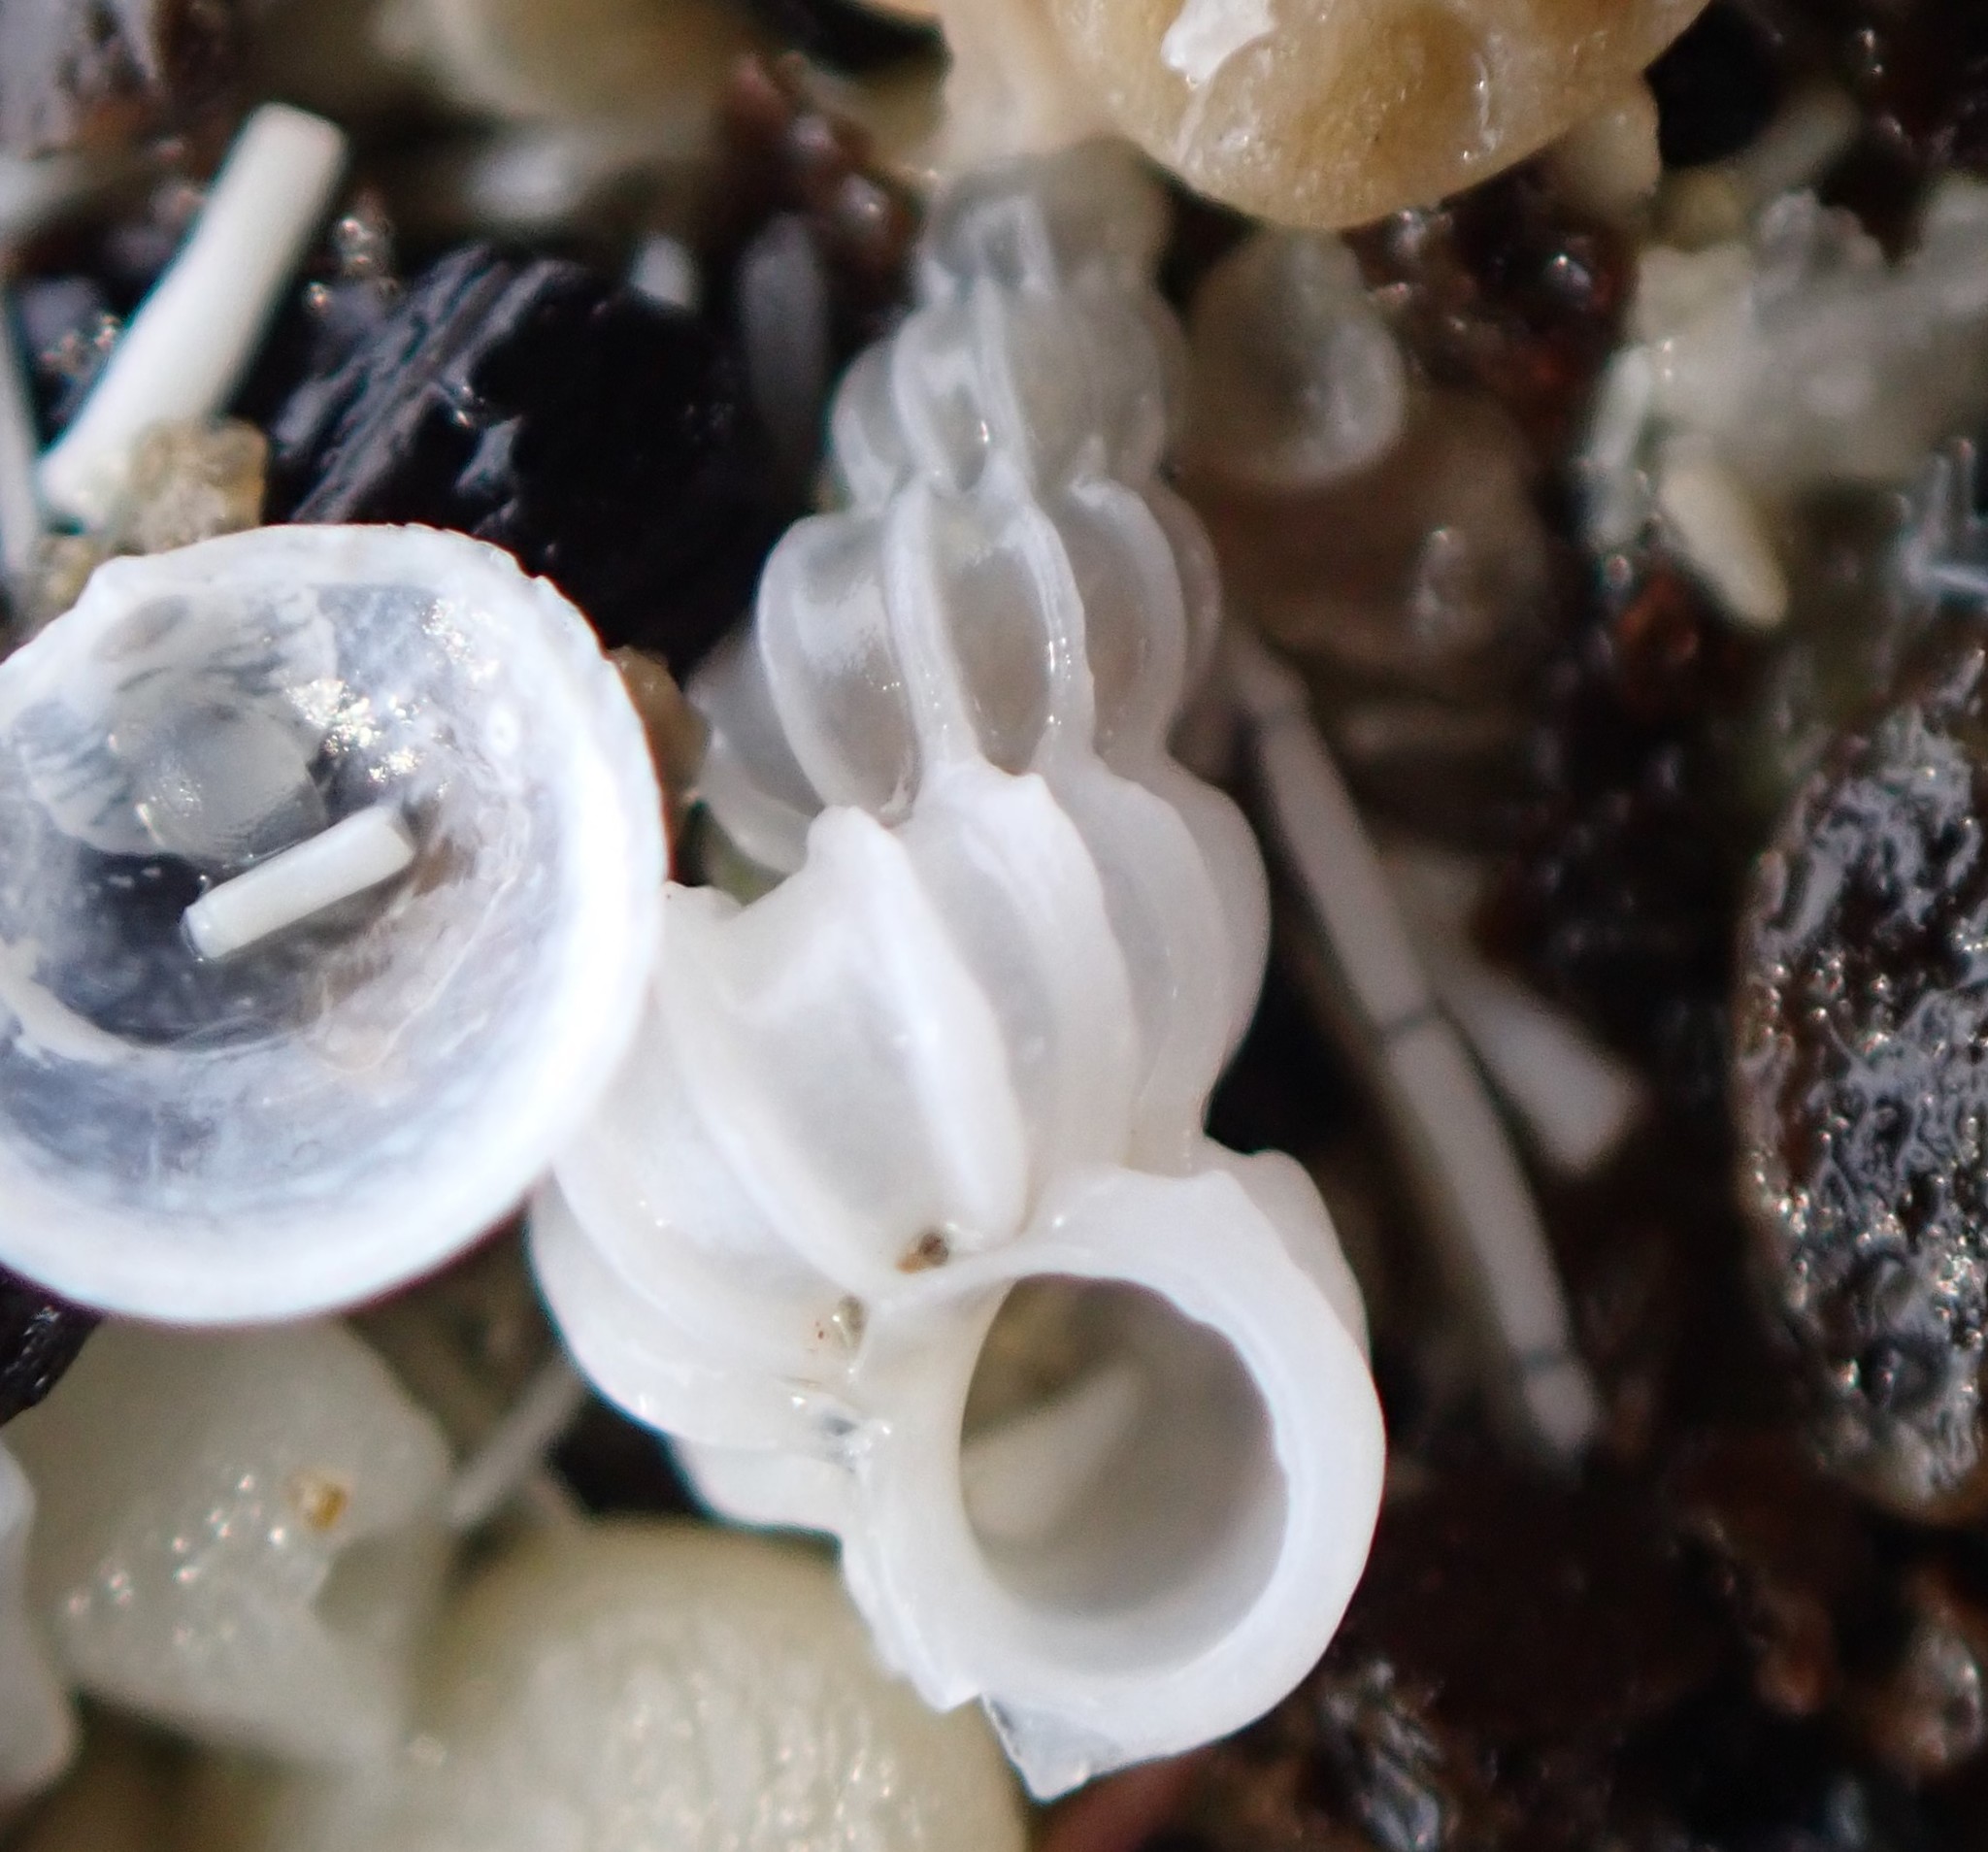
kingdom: Animalia
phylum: Mollusca
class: Gastropoda
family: Epitoniidae
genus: Epitonium
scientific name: Epitonium minorum
